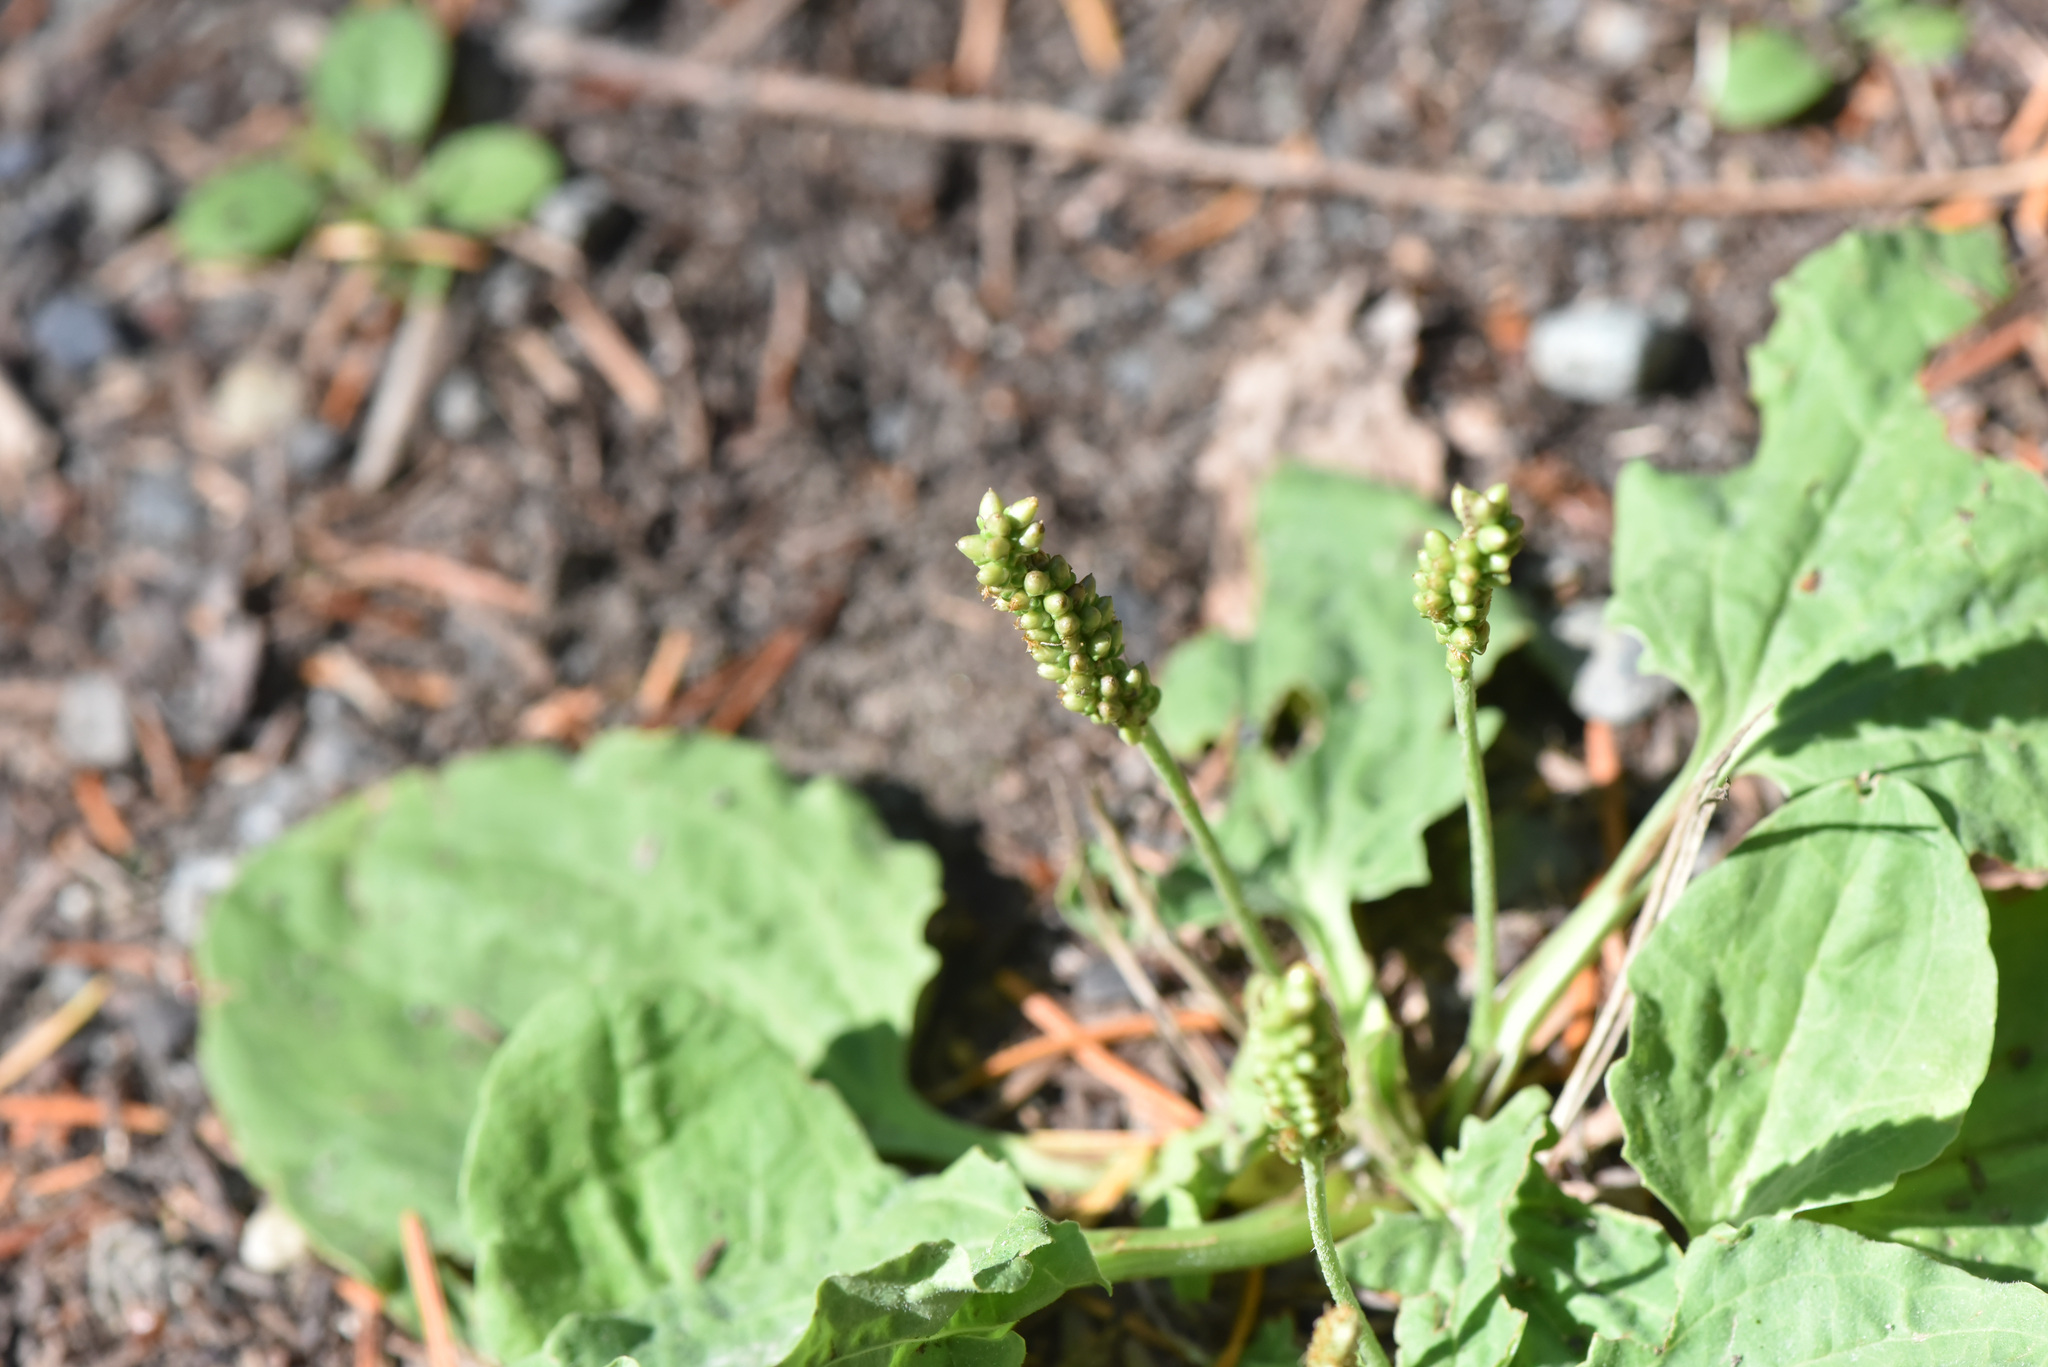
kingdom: Plantae
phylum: Tracheophyta
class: Magnoliopsida
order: Lamiales
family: Plantaginaceae
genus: Plantago
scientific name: Plantago major
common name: Common plantain
